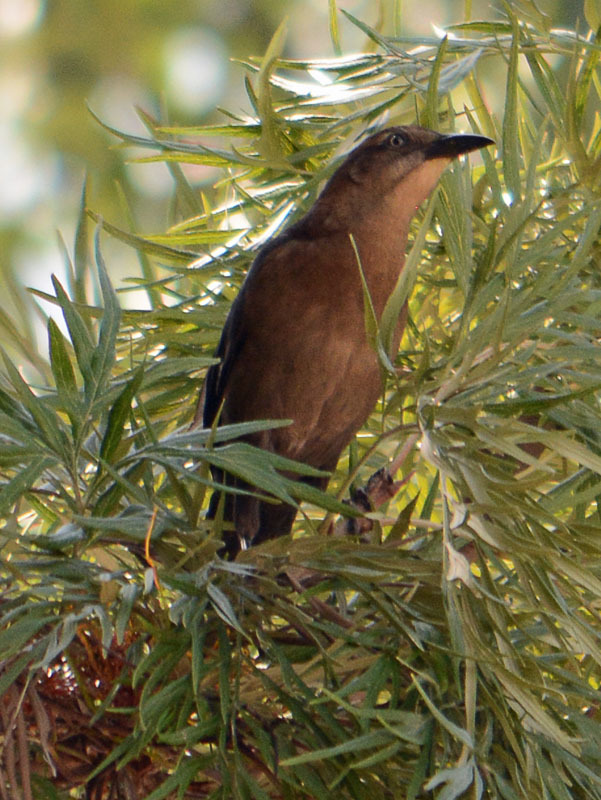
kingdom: Animalia
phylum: Chordata
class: Aves
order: Passeriformes
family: Icteridae
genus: Quiscalus
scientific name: Quiscalus mexicanus
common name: Great-tailed grackle
